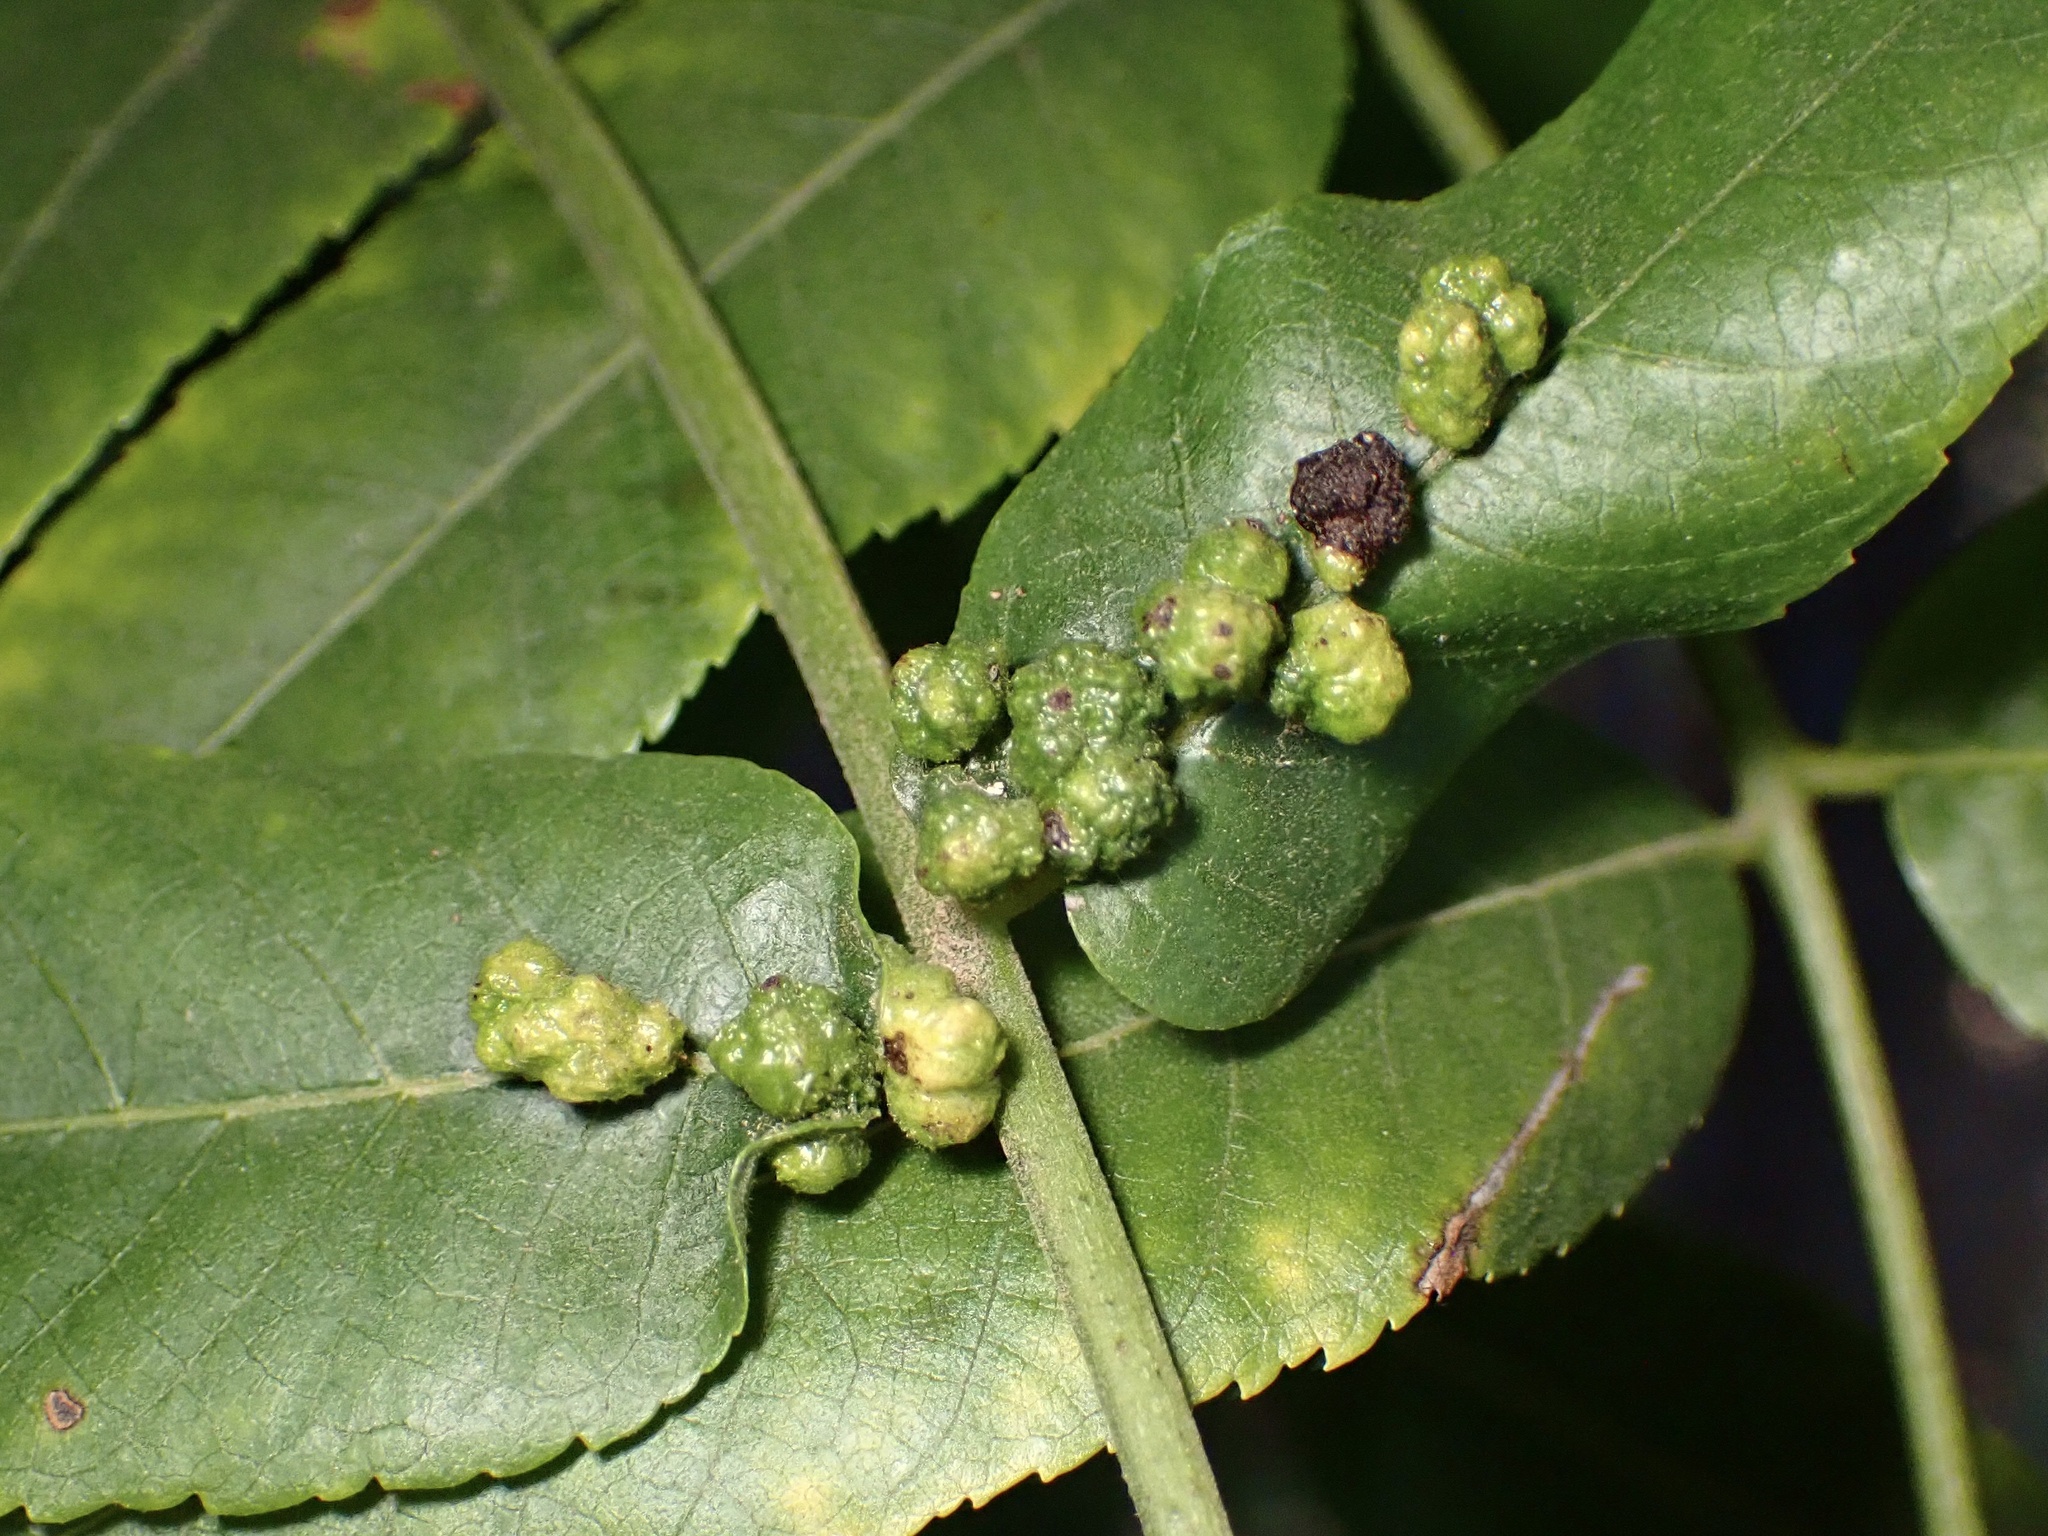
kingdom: Animalia
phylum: Arthropoda
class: Arachnida
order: Trombidiformes
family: Eriophyidae
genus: Aceria
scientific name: Aceria brachytarsus
